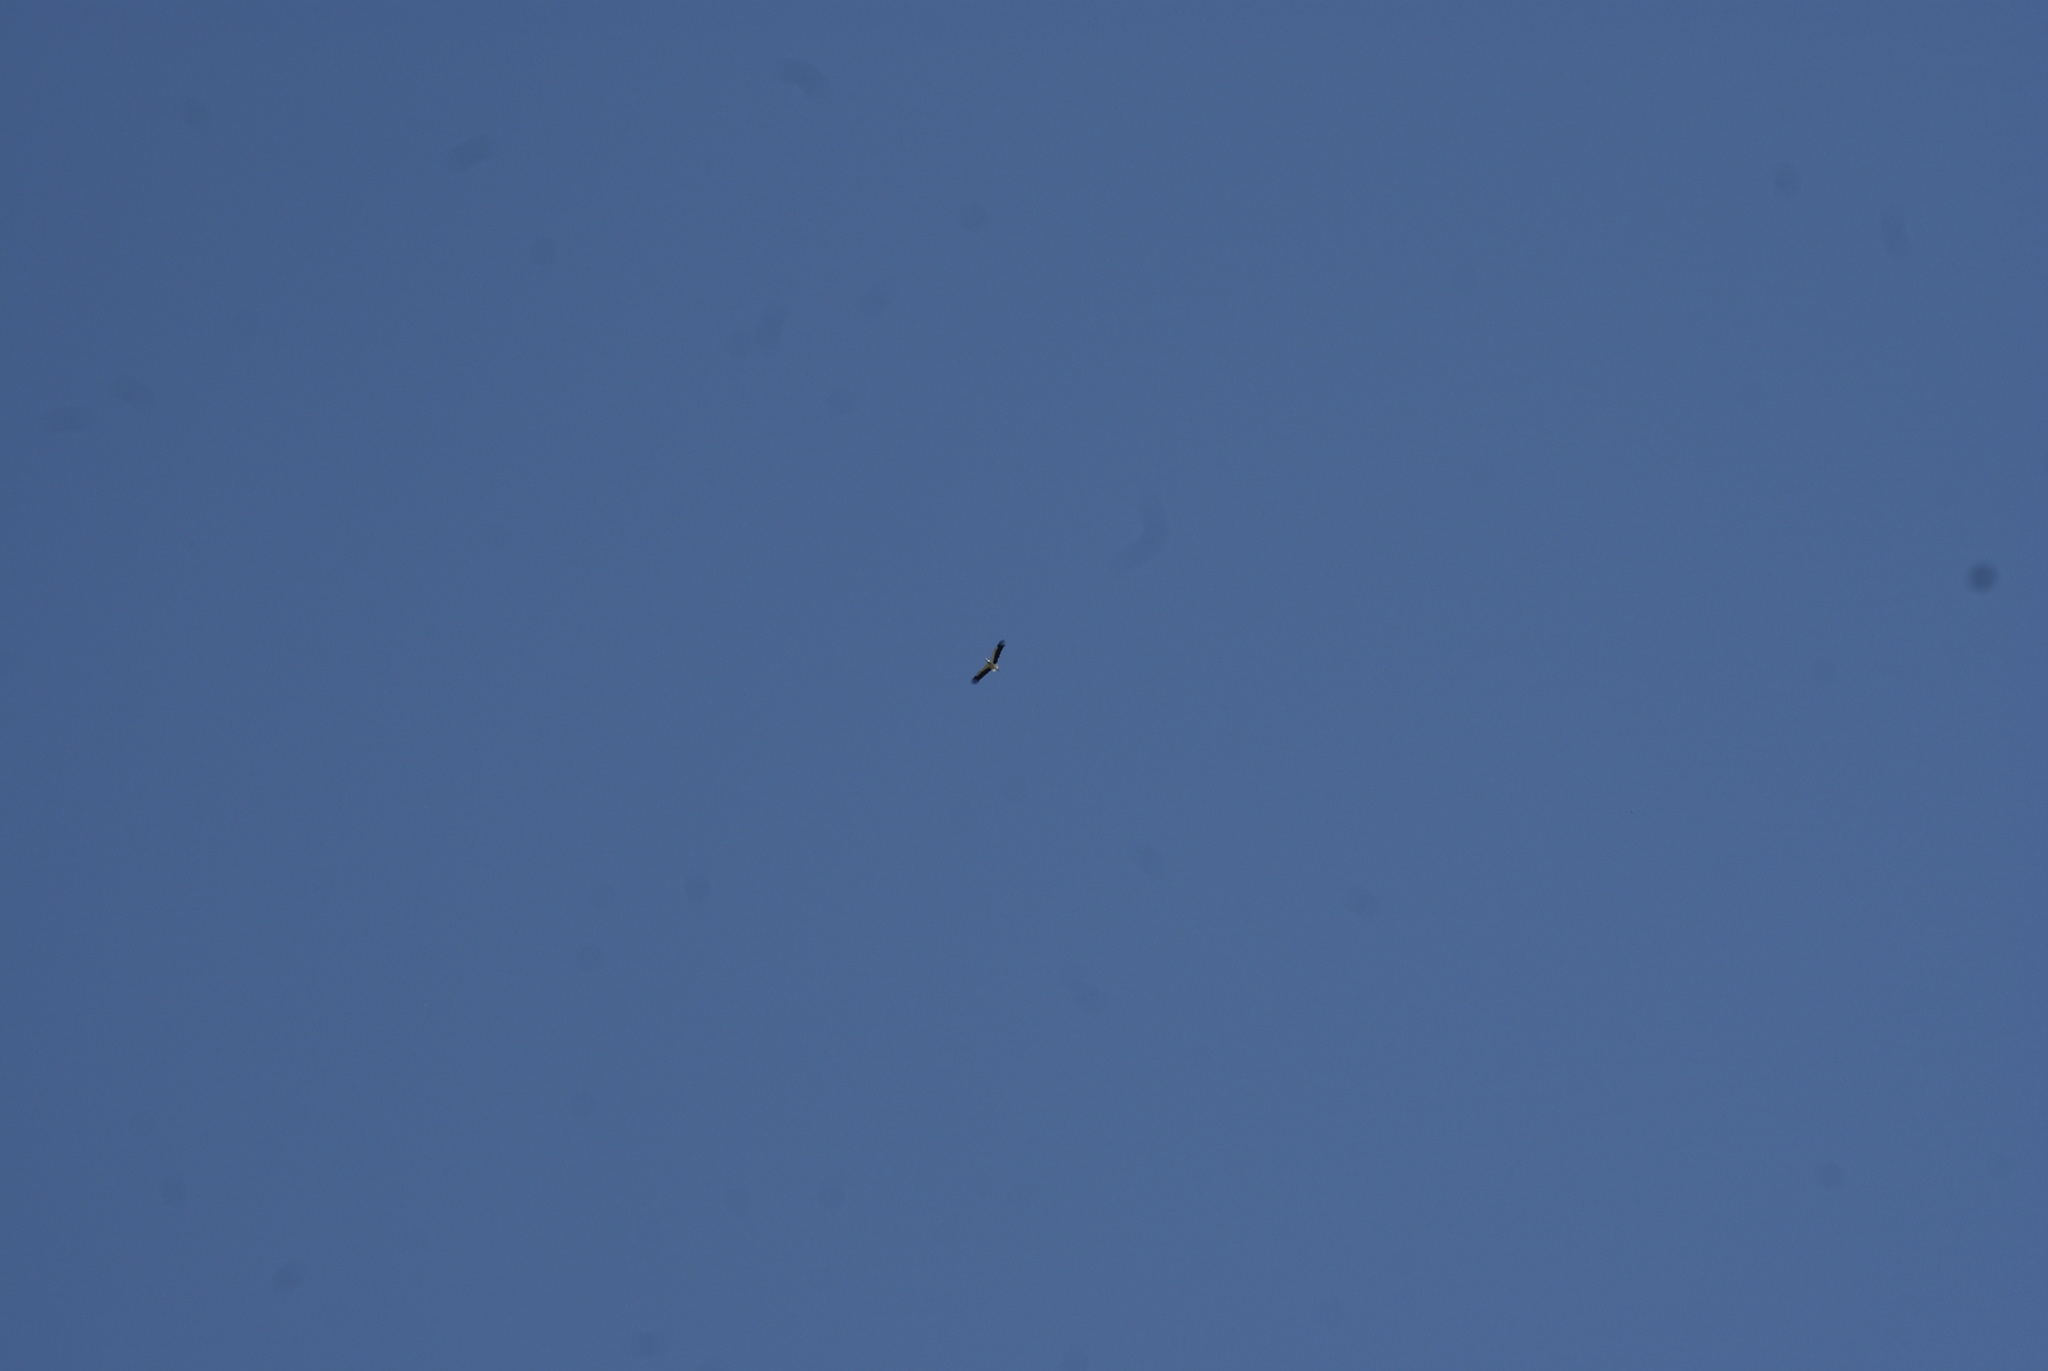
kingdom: Animalia
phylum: Chordata
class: Aves
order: Ciconiiformes
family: Ciconiidae
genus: Ciconia
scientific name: Ciconia ciconia
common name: White stork
